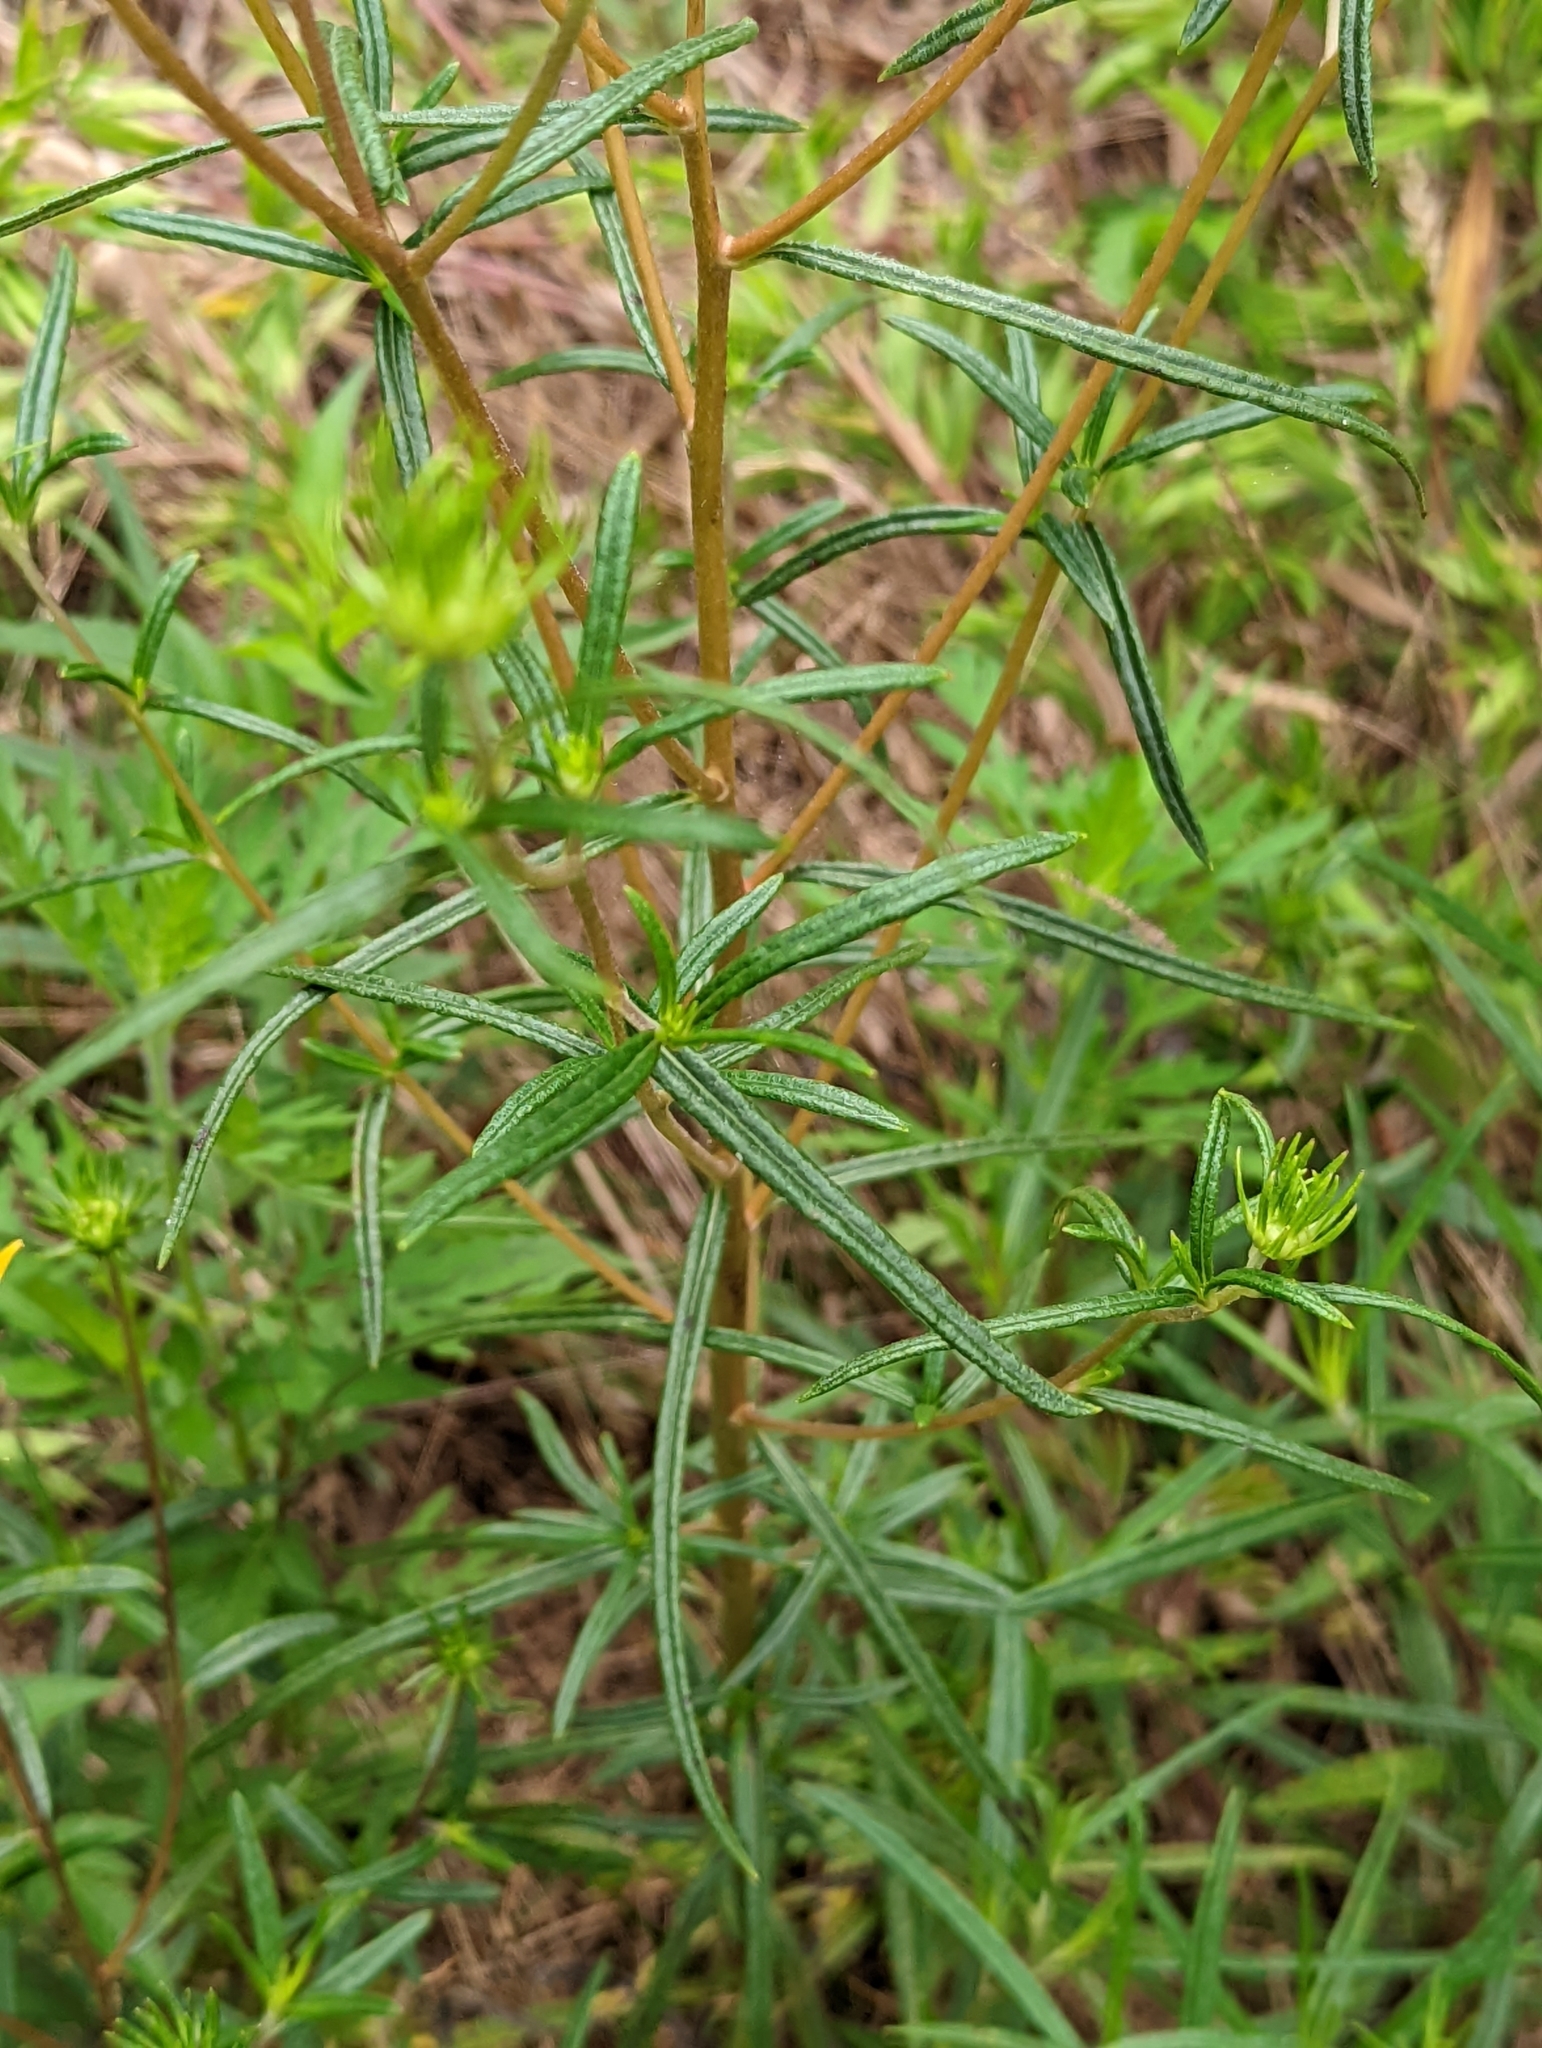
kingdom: Plantae
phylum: Tracheophyta
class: Magnoliopsida
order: Asterales
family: Asteraceae
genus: Helianthus
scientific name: Helianthus angustifolius
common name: Swamp sunflower
